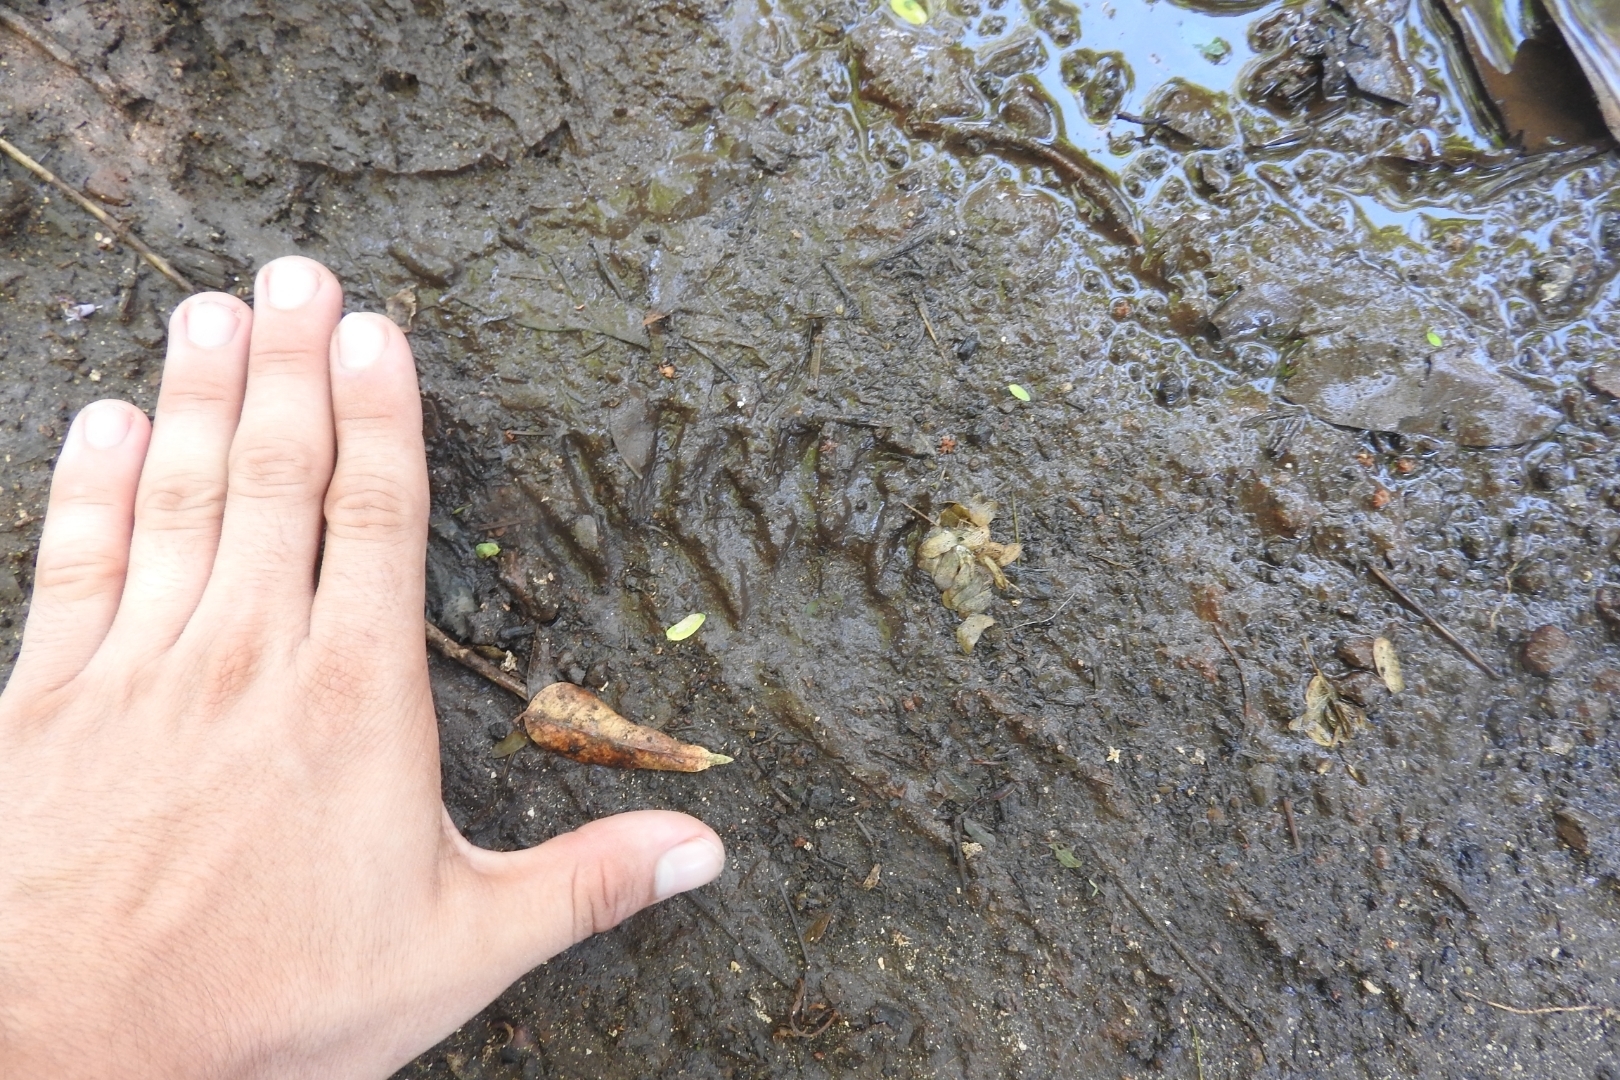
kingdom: Animalia
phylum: Chordata
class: Mammalia
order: Carnivora
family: Procyonidae
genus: Procyon
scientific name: Procyon lotor
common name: Raccoon
